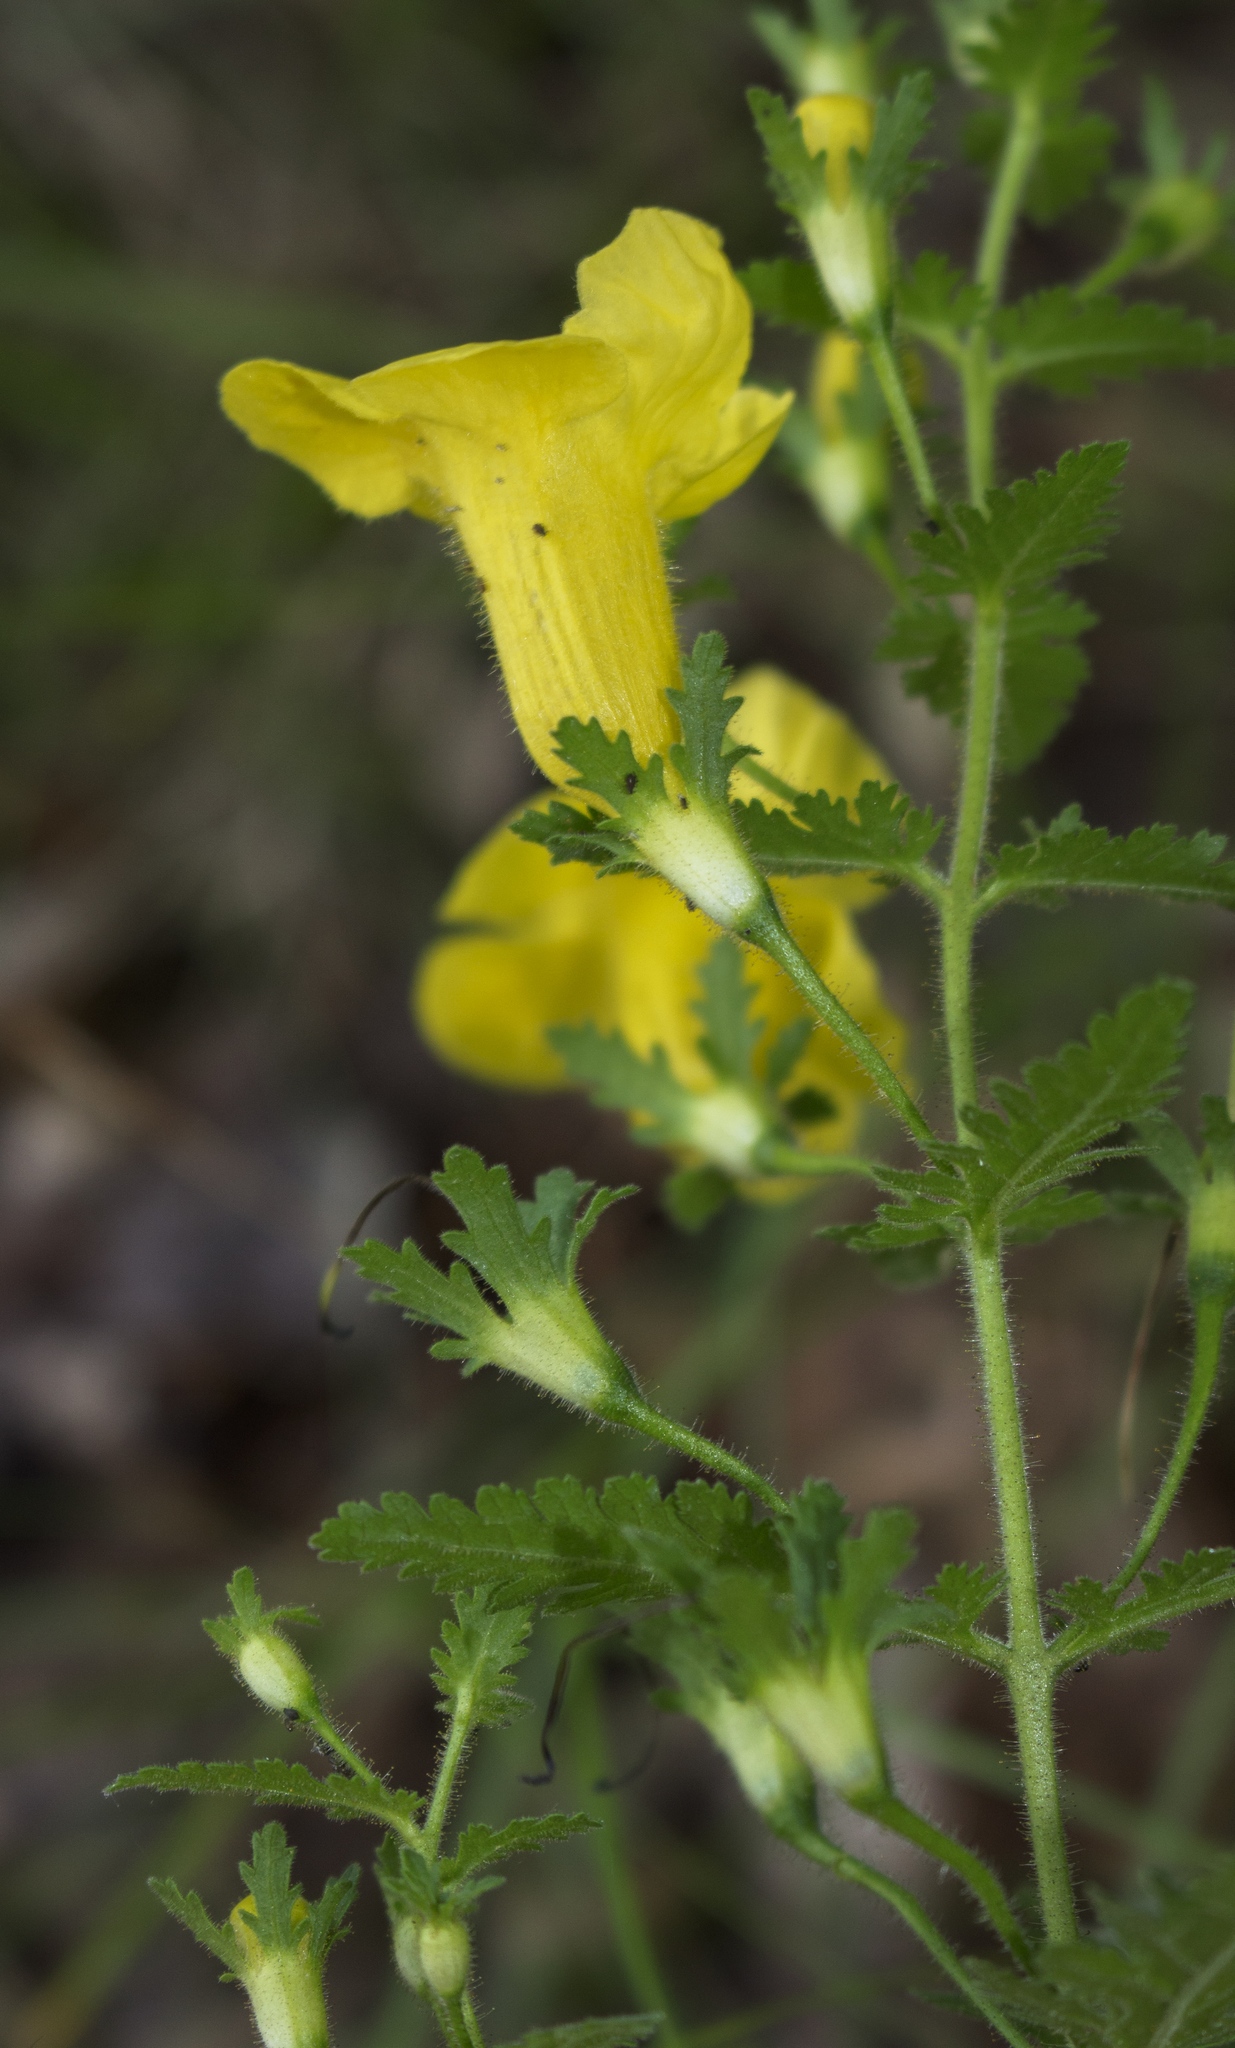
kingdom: Plantae
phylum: Tracheophyta
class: Magnoliopsida
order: Lamiales
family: Orobanchaceae
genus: Aureolaria
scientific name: Aureolaria pedicularia
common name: Annual false foxglove
